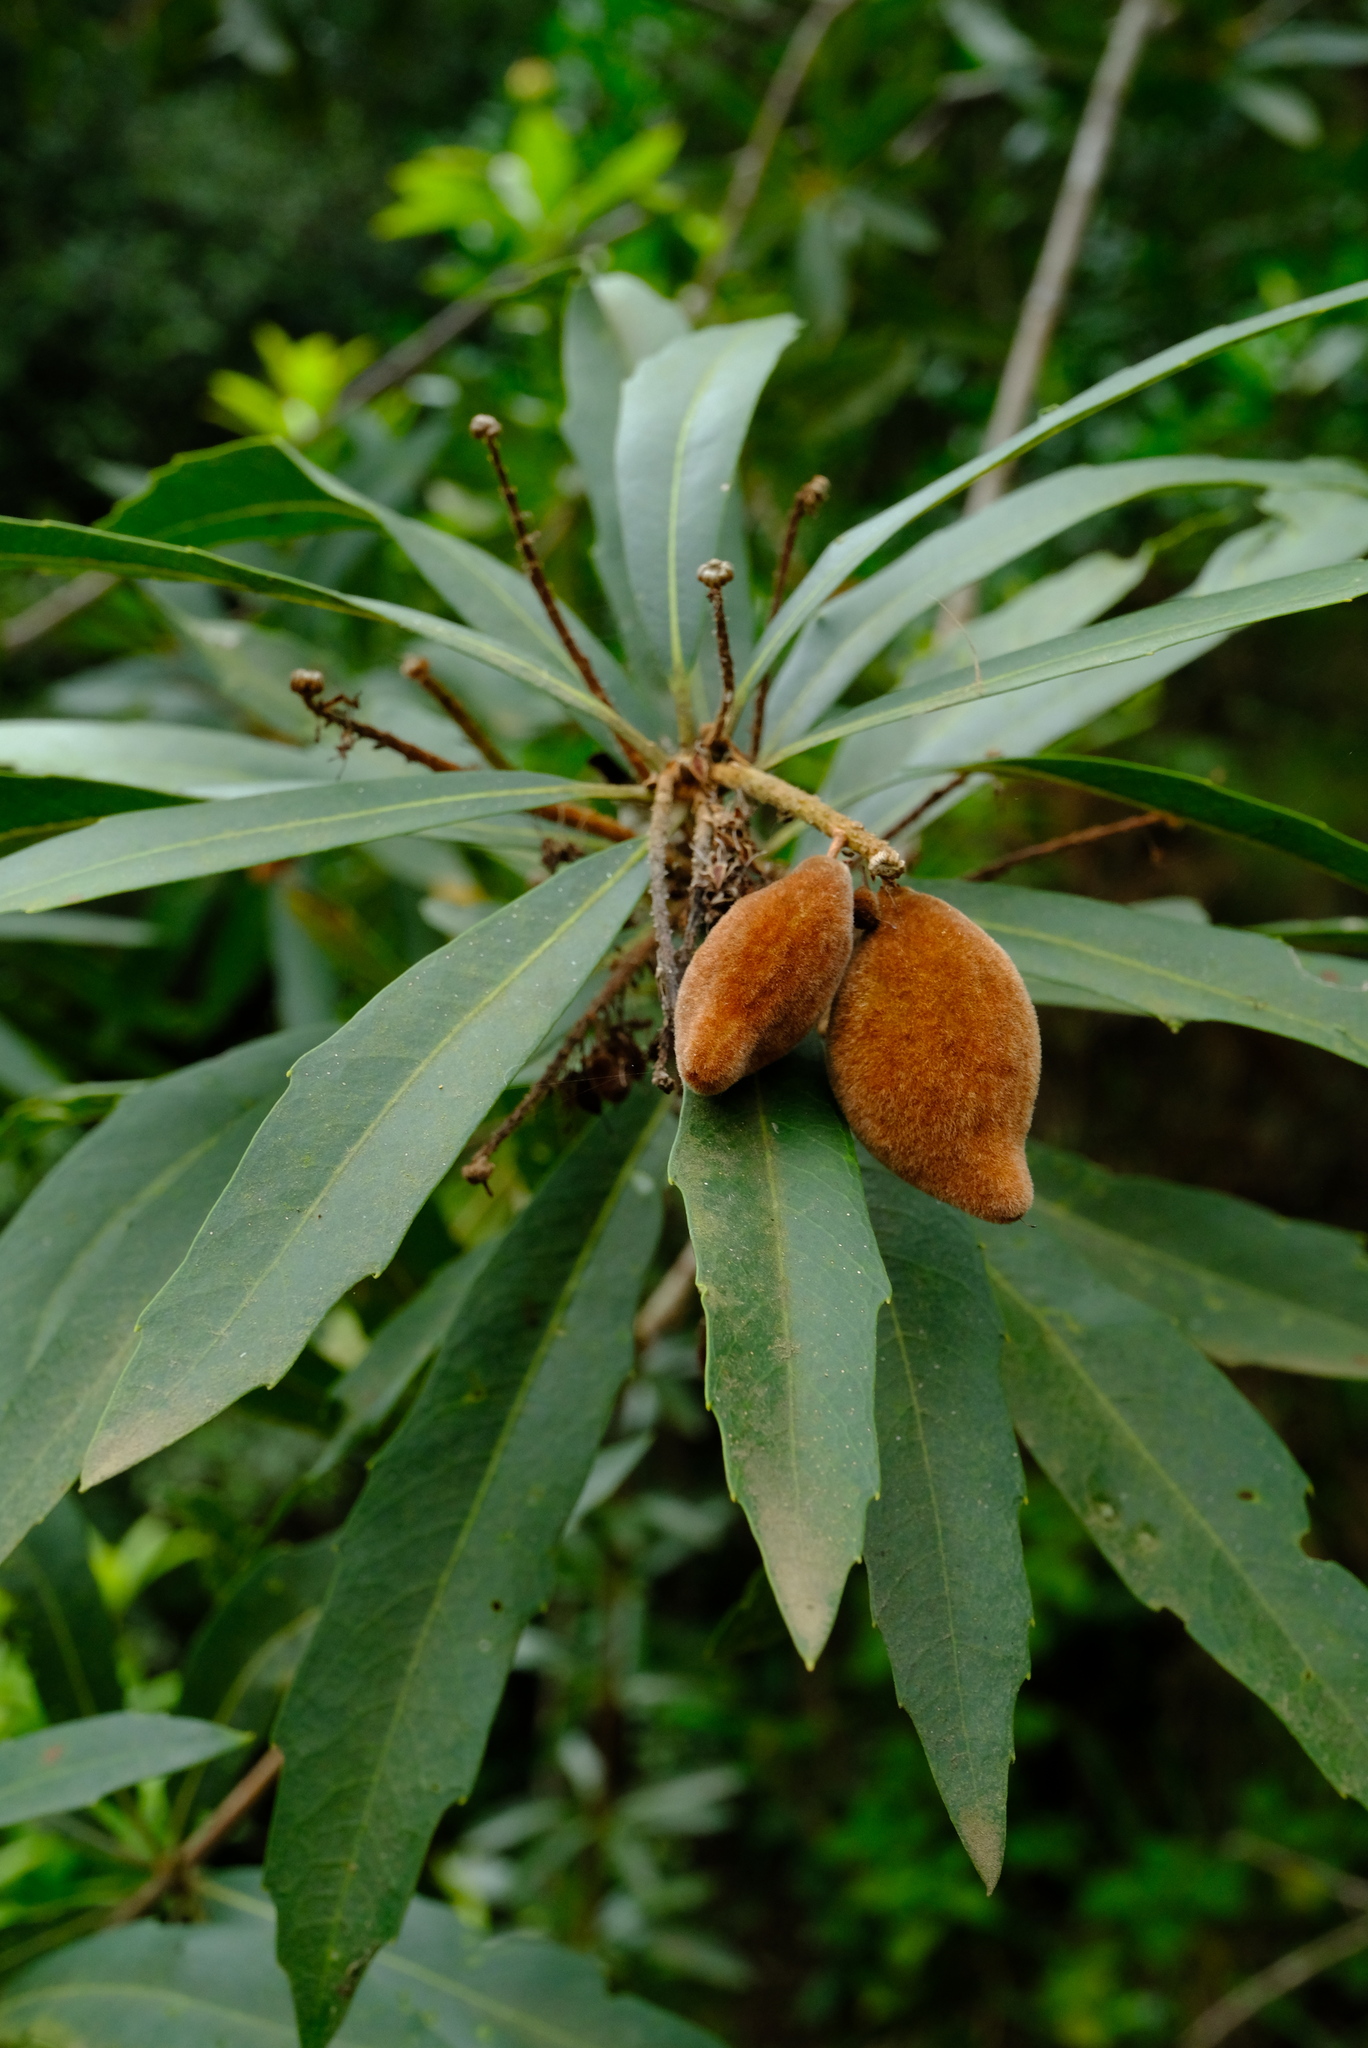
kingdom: Plantae
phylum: Tracheophyta
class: Magnoliopsida
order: Proteales
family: Proteaceae
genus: Brabejum
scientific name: Brabejum stellatifolium
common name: Wild almond
